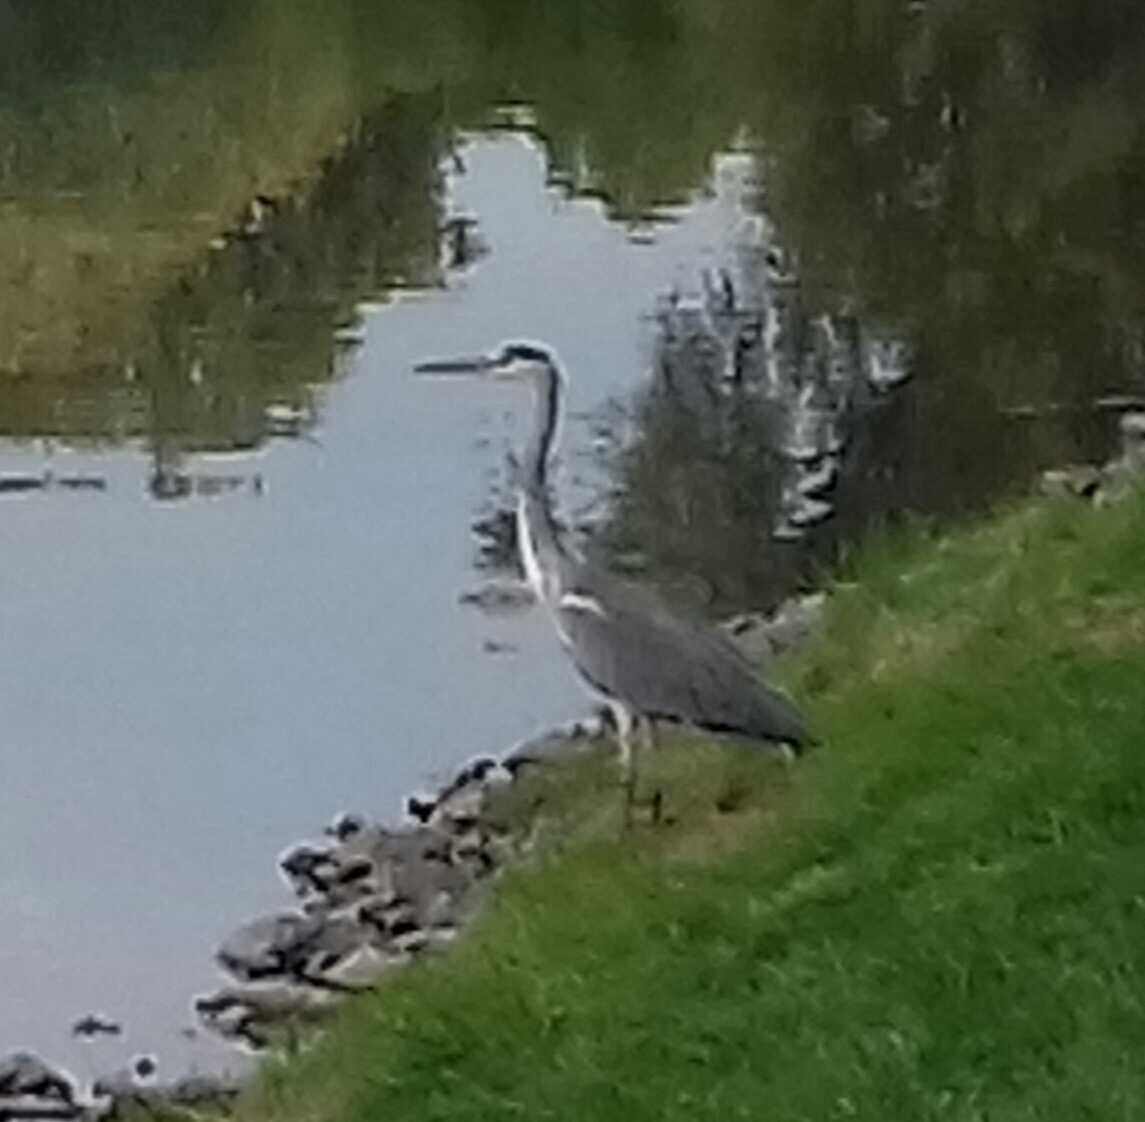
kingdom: Animalia
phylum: Chordata
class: Aves
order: Pelecaniformes
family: Ardeidae
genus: Ardea
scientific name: Ardea cinerea
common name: Grey heron
